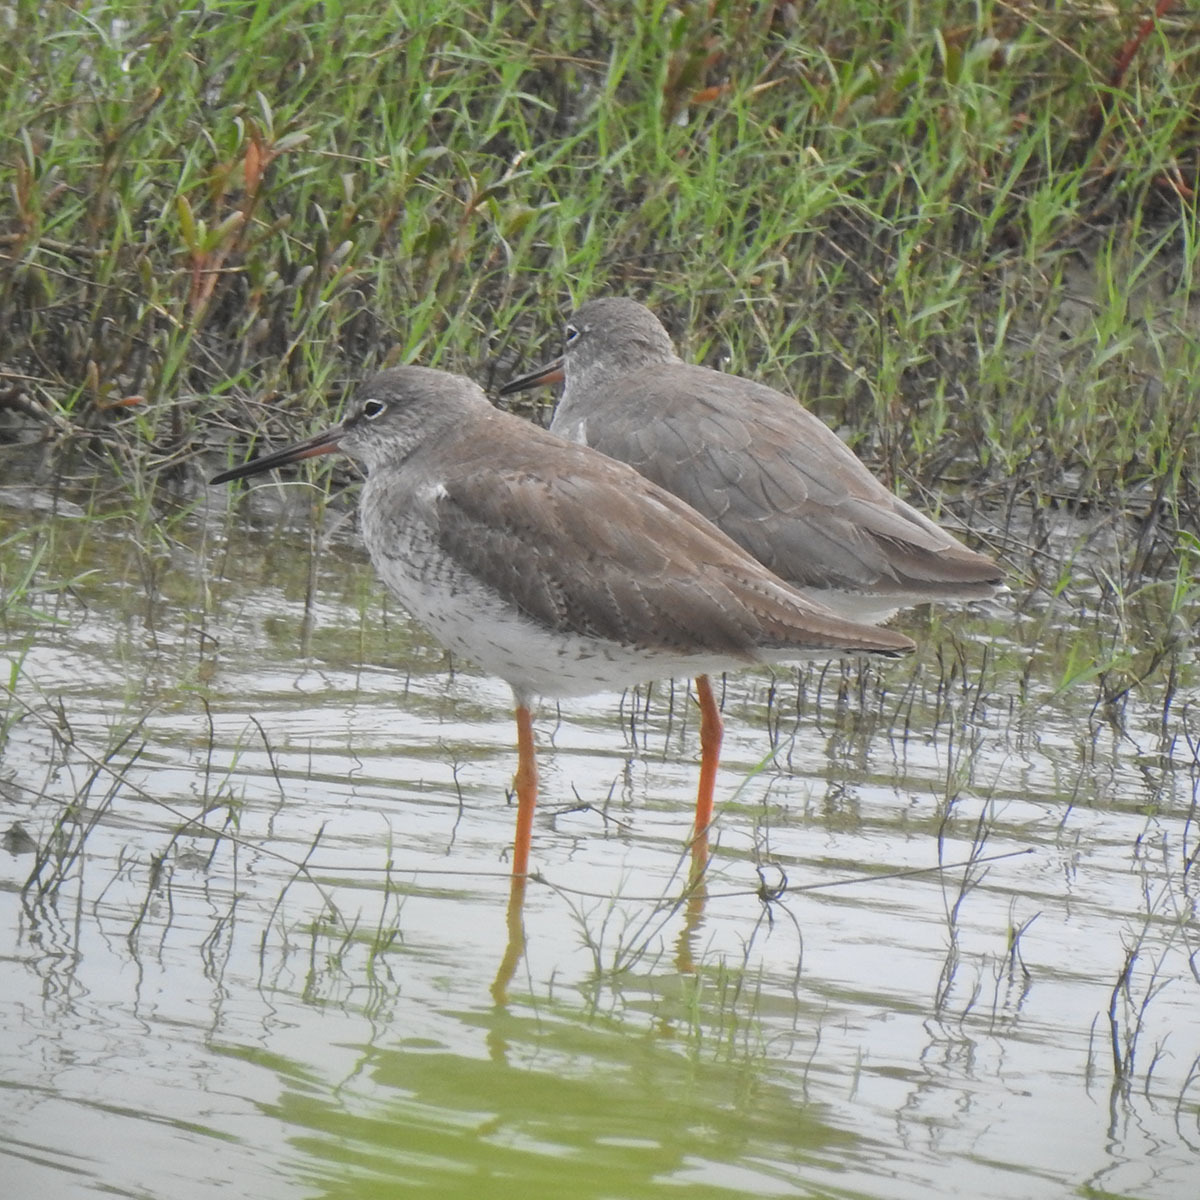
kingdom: Animalia
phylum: Chordata
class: Aves
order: Charadriiformes
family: Scolopacidae
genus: Tringa
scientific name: Tringa totanus
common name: Common redshank
